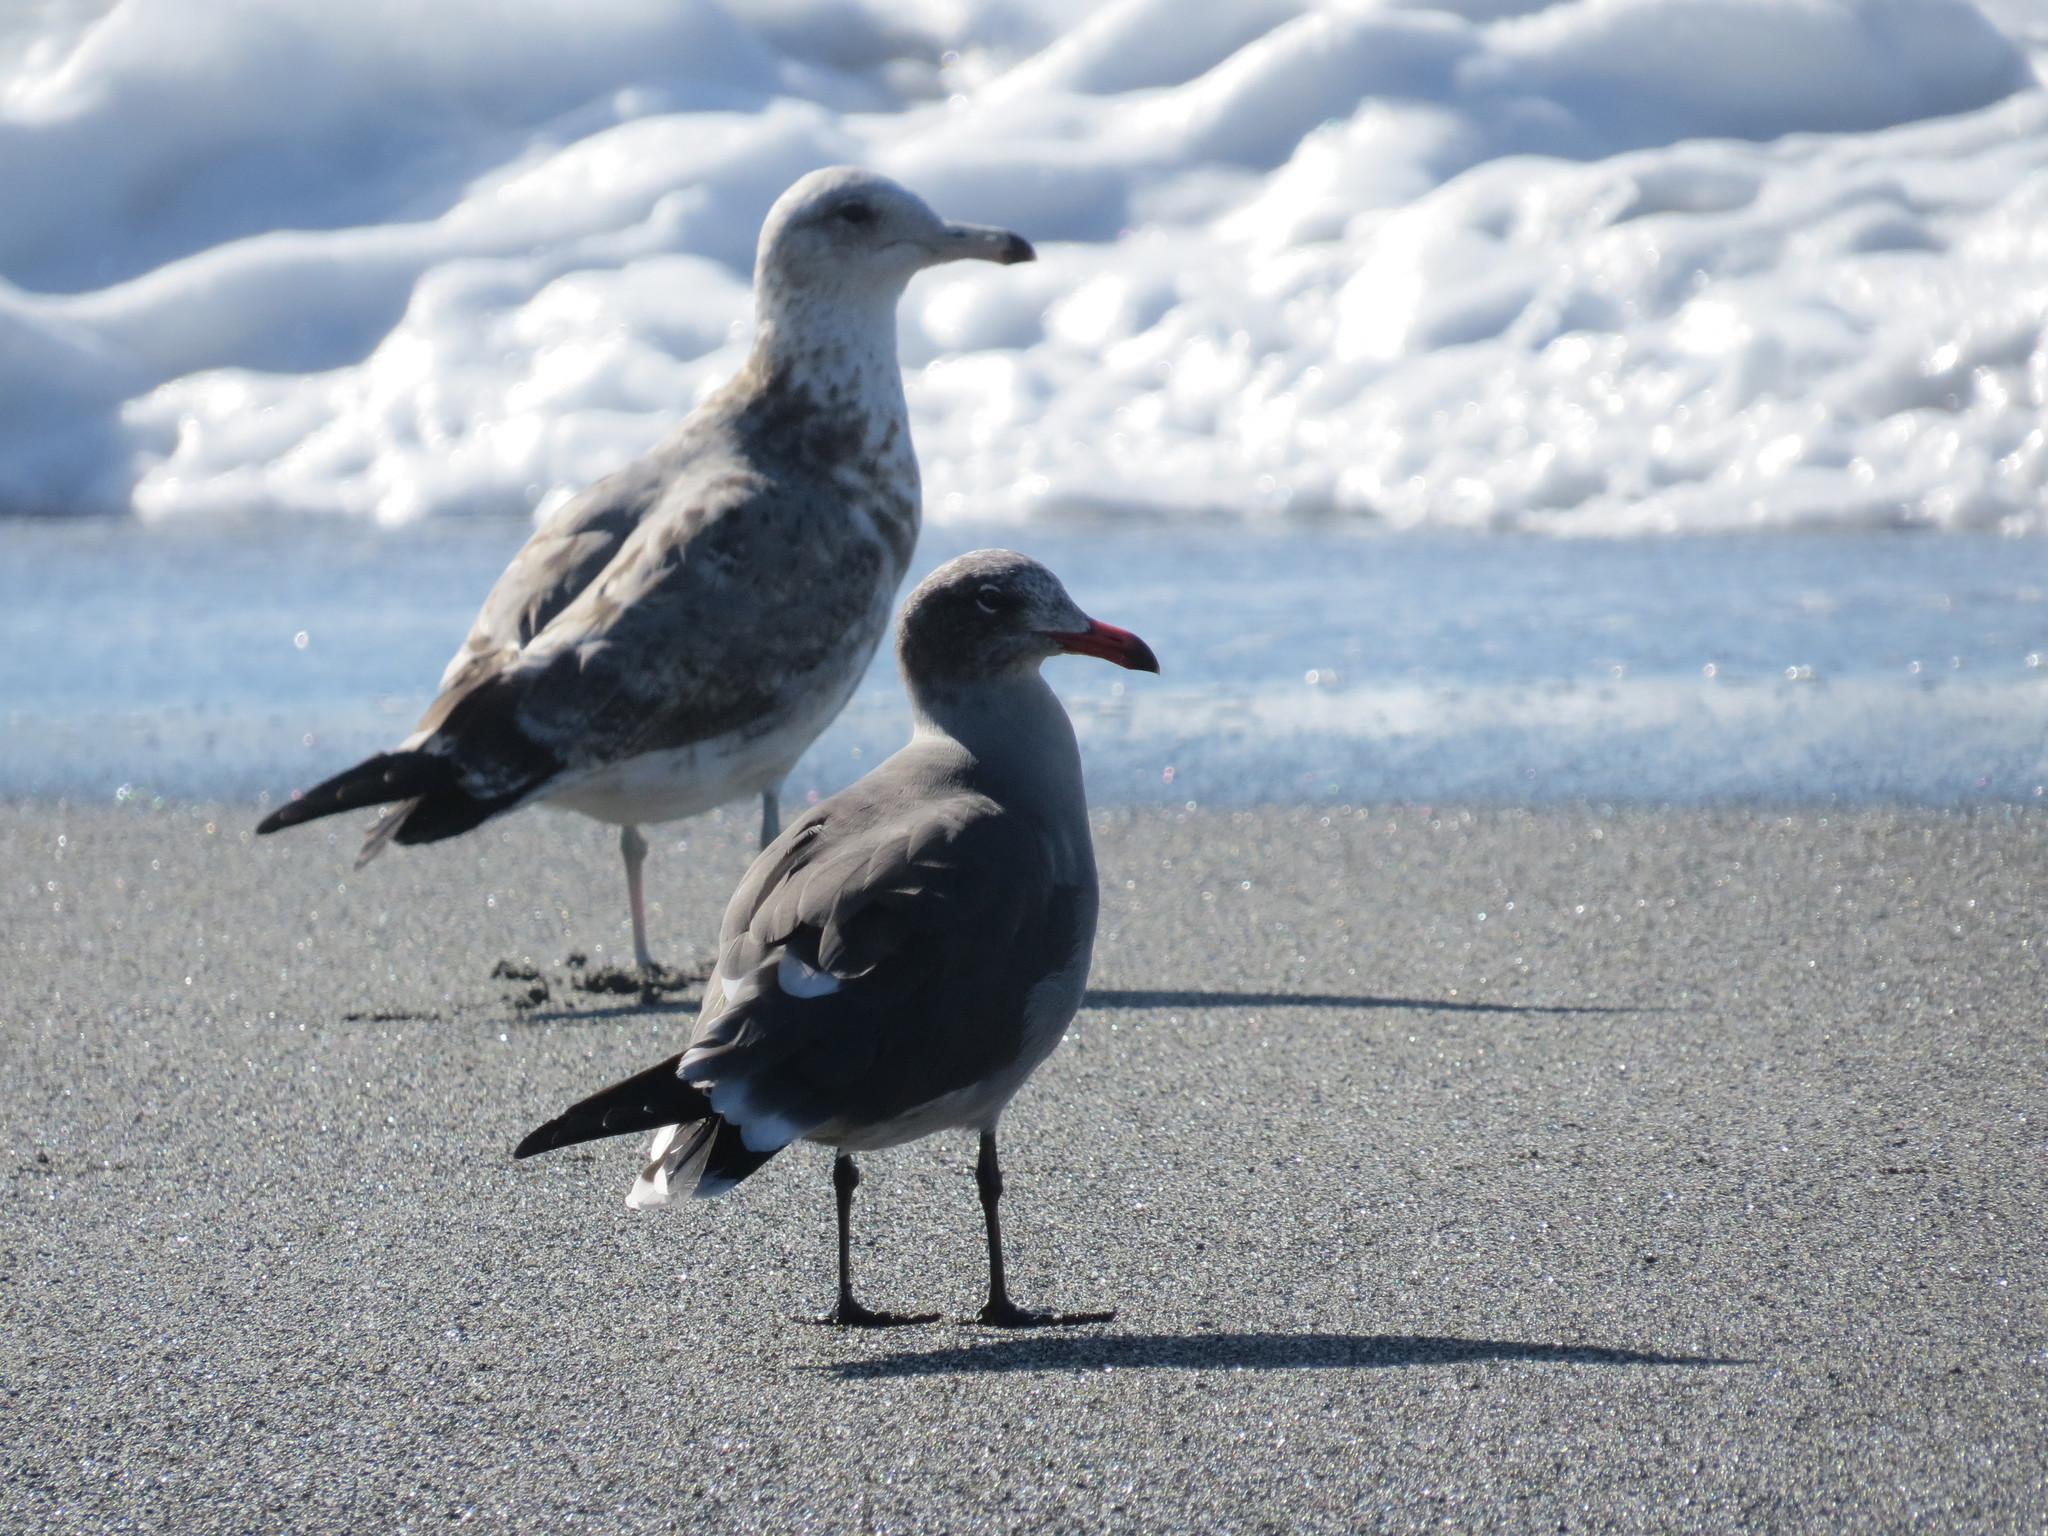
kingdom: Animalia
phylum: Chordata
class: Aves
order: Charadriiformes
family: Laridae
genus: Larus
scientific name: Larus heermanni
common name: Heermann's gull
